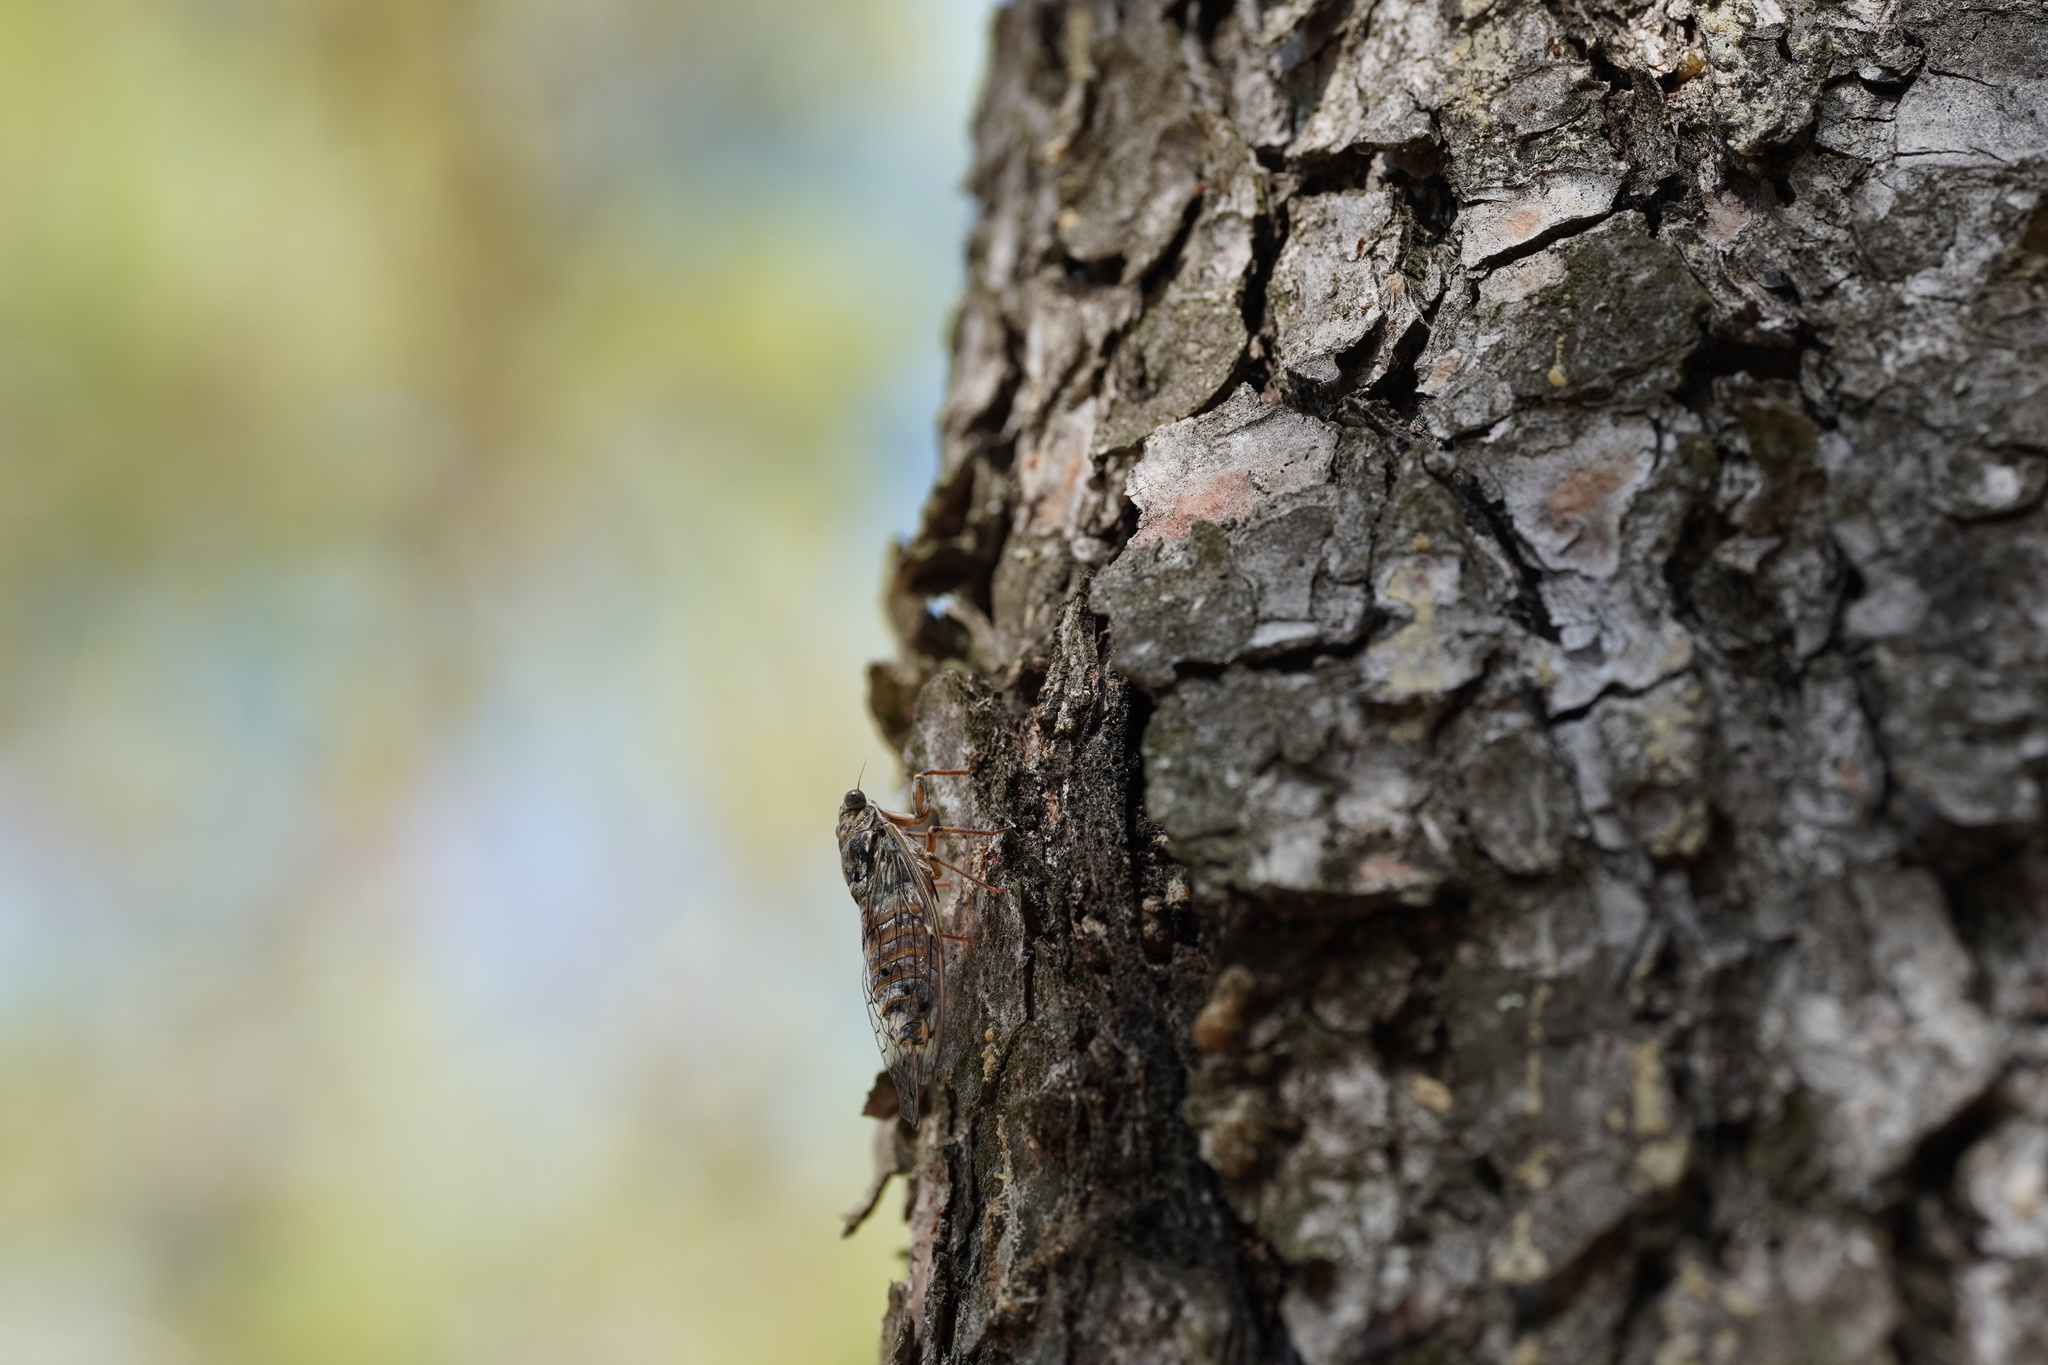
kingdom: Animalia
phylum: Arthropoda
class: Insecta
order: Hemiptera
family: Cicadidae
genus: Cicada
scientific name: Cicada orni
